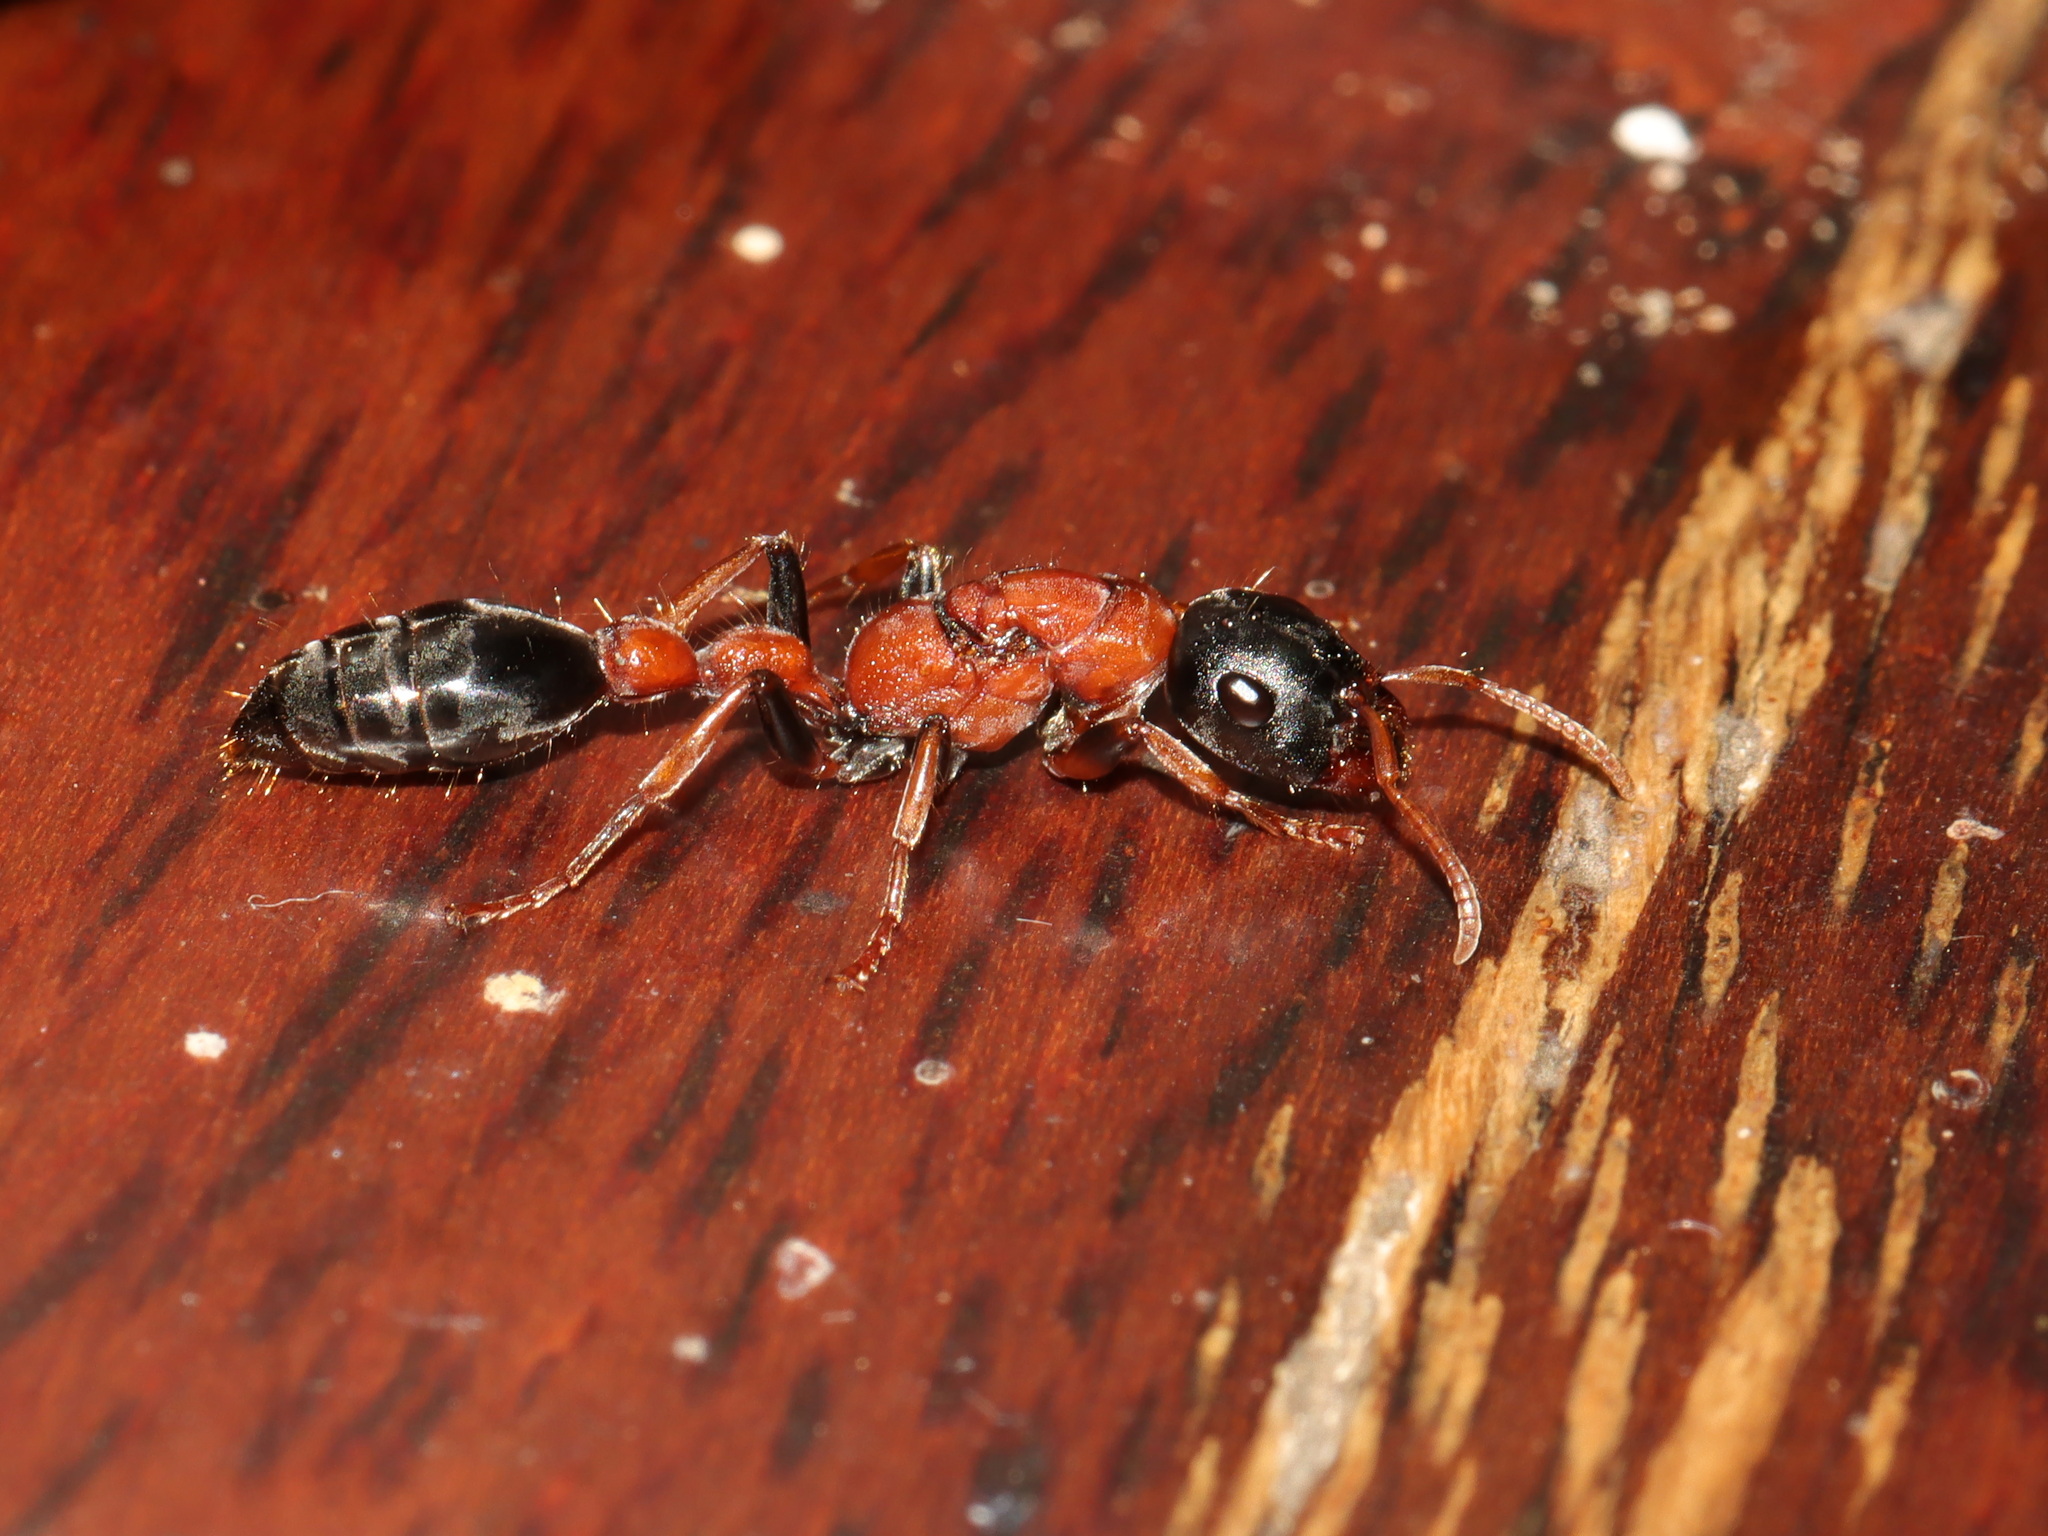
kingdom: Animalia
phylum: Arthropoda
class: Insecta
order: Hymenoptera
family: Formicidae
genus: Tetraponera
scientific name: Tetraponera rufonigra
